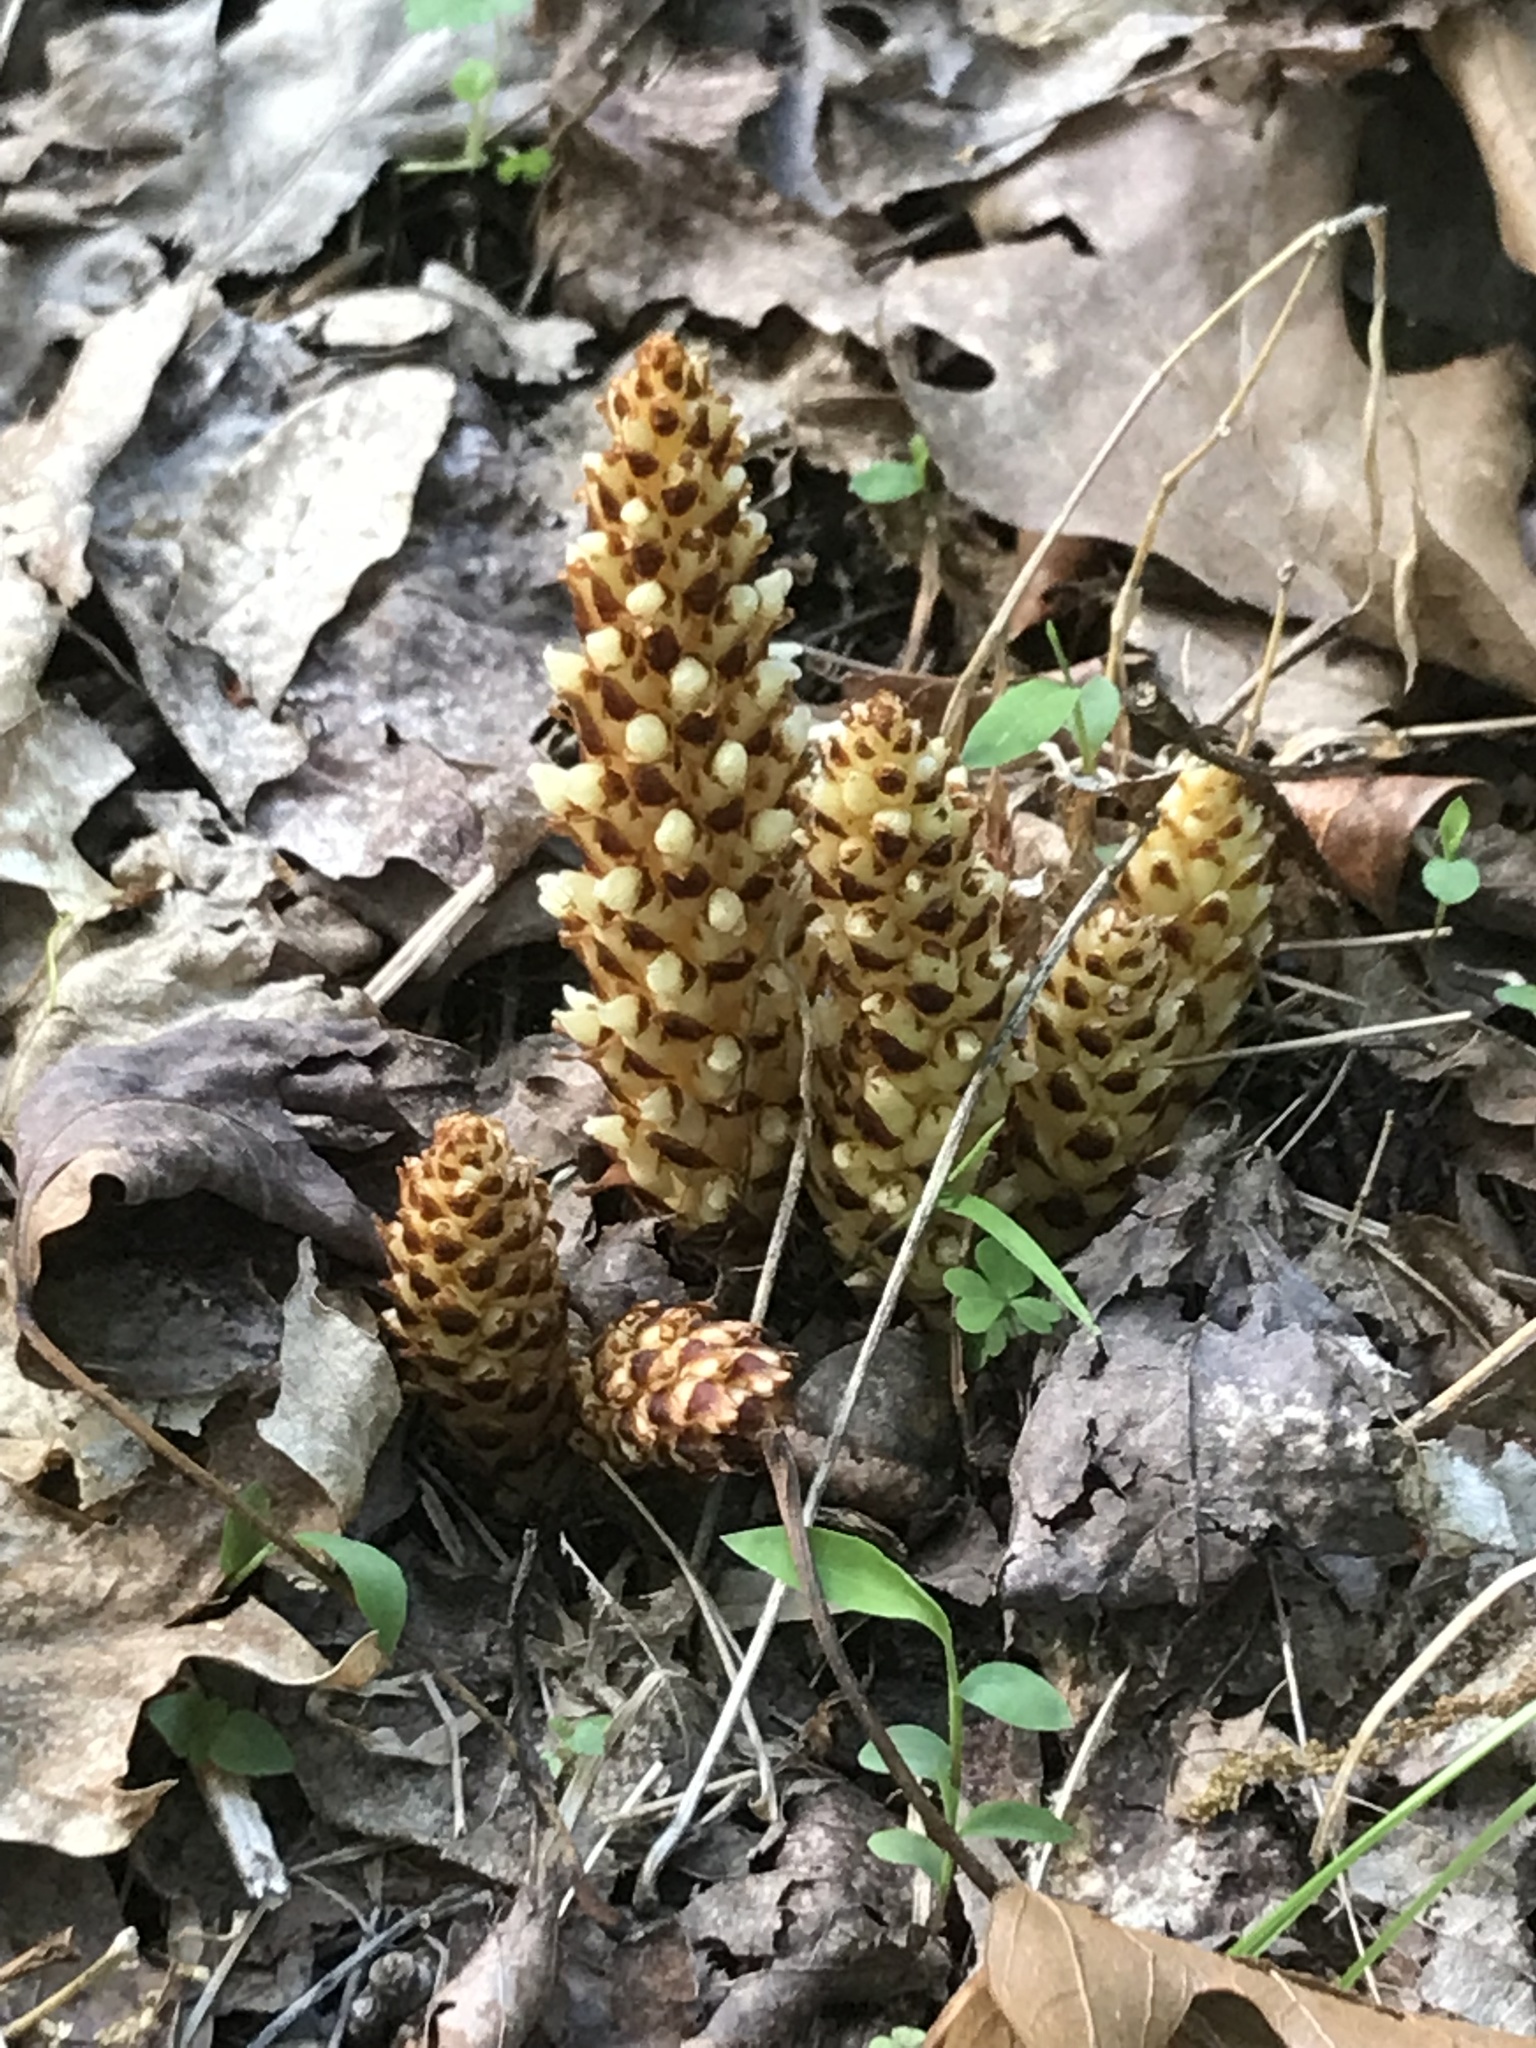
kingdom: Plantae
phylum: Tracheophyta
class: Magnoliopsida
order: Lamiales
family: Orobanchaceae
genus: Conopholis
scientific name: Conopholis americana
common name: American cancer-root
